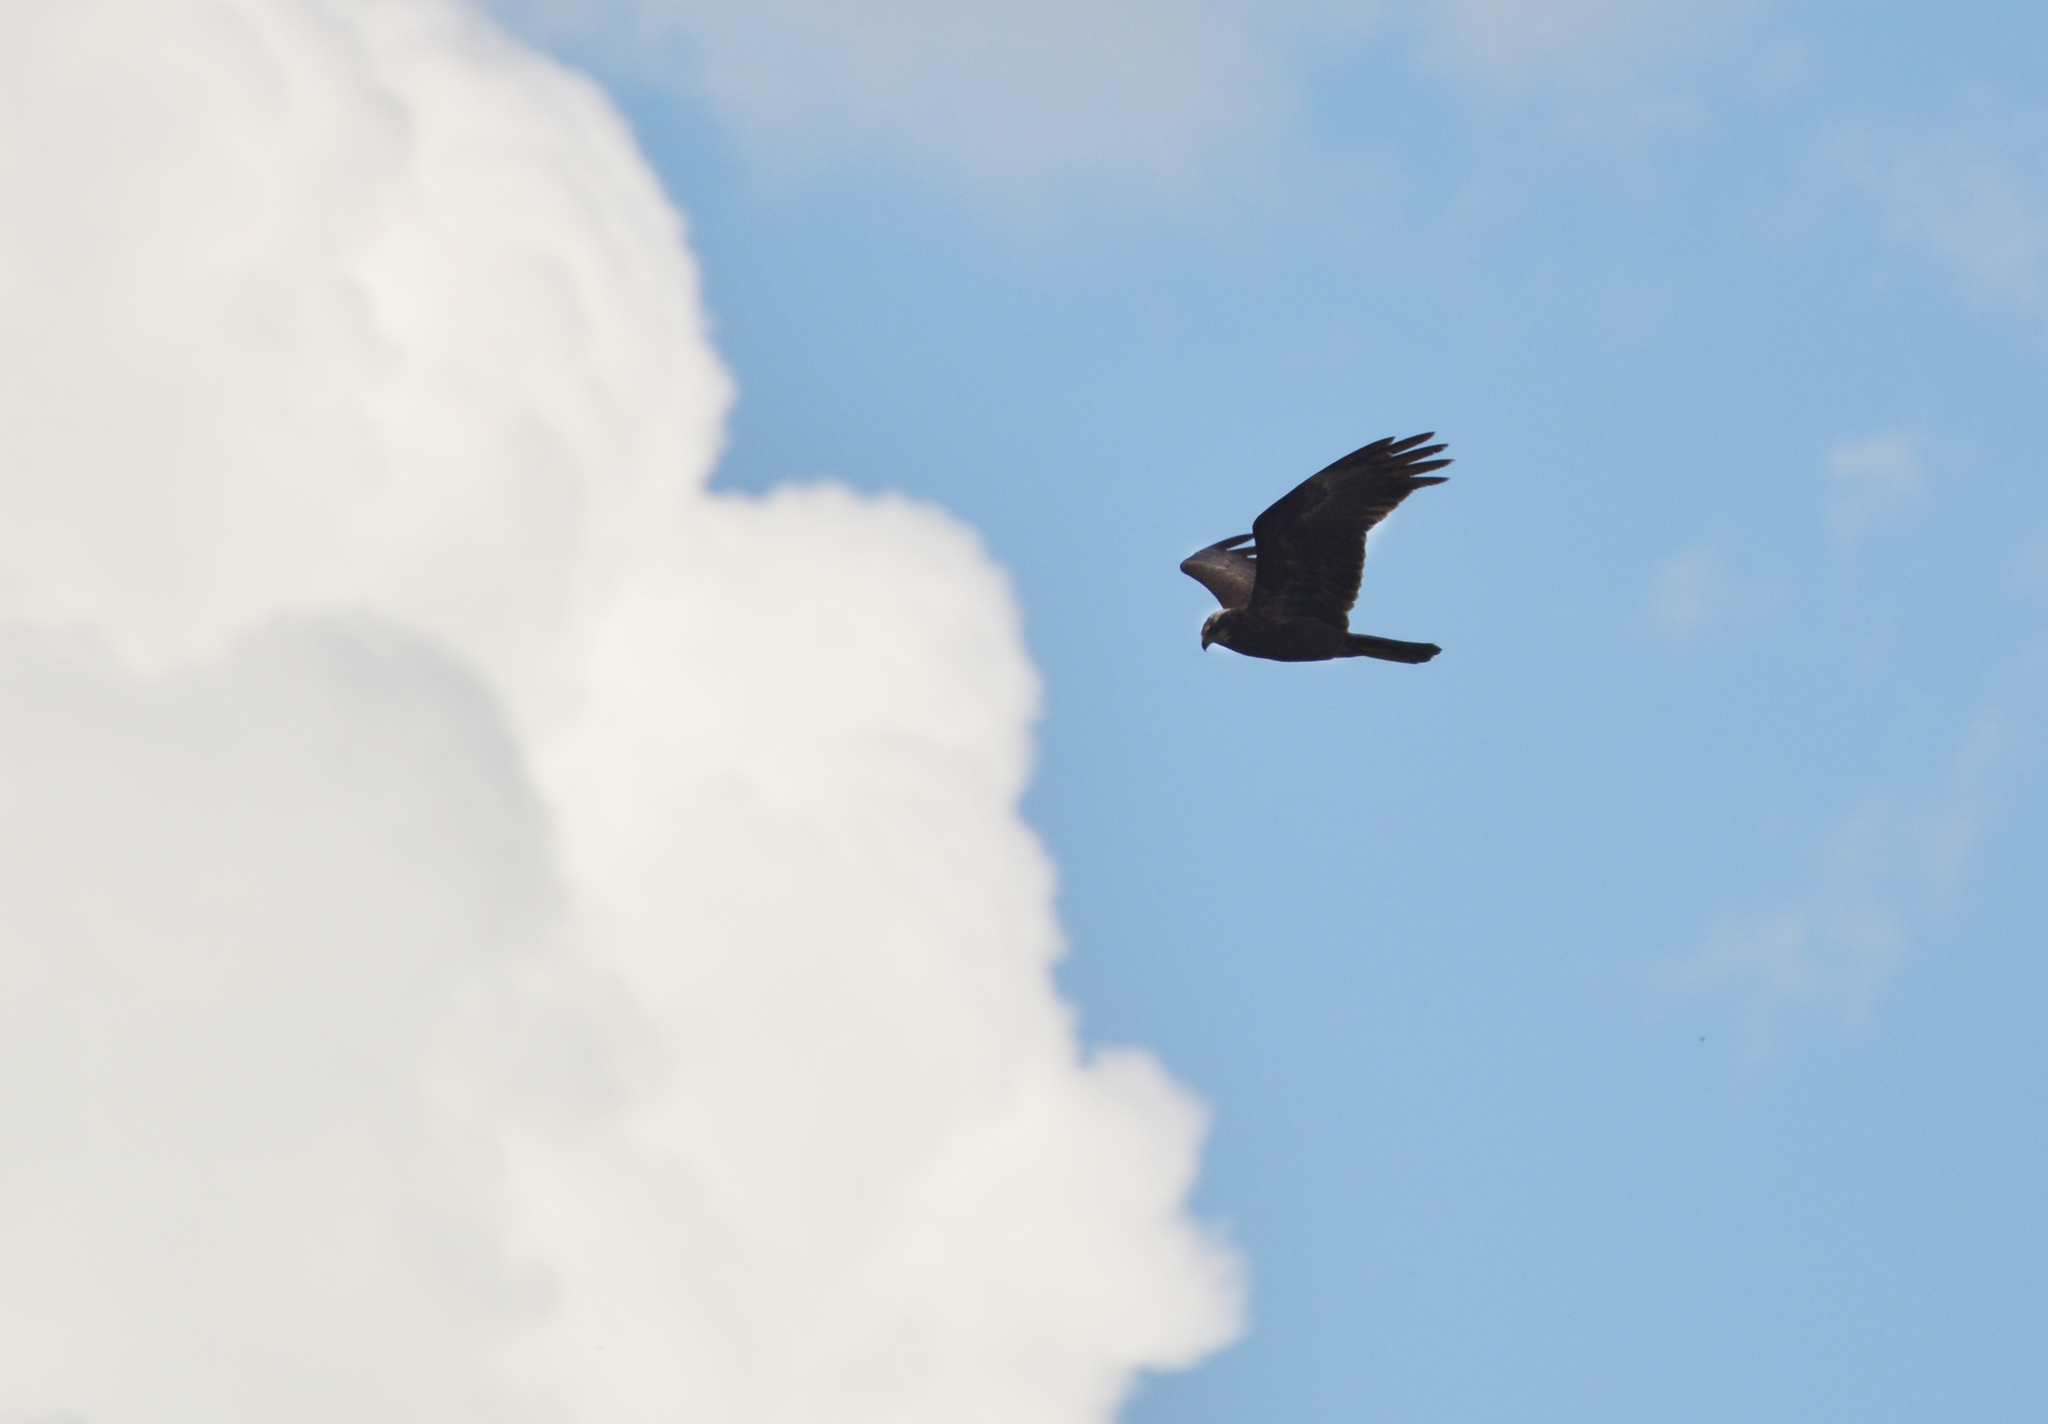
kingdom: Animalia
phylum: Chordata
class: Aves
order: Accipitriformes
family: Accipitridae
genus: Circus
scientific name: Circus aeruginosus
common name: Western marsh harrier
